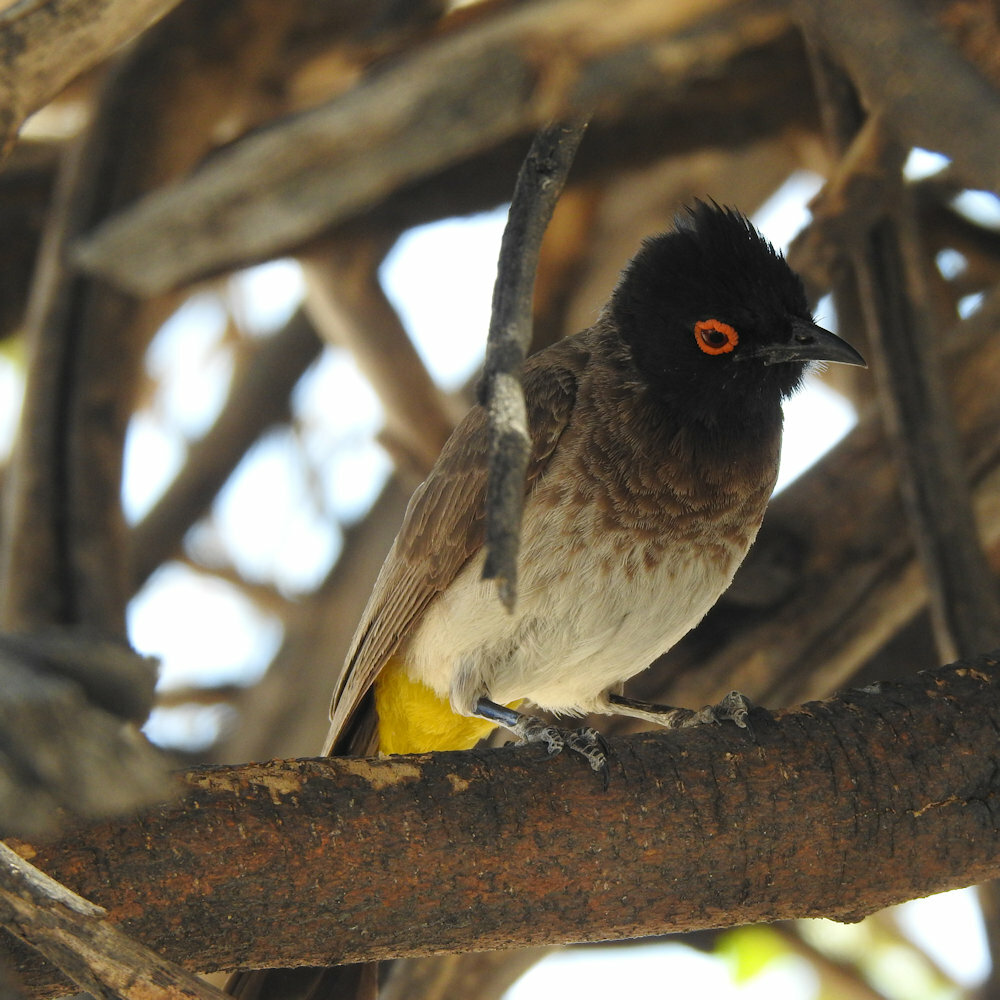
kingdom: Animalia
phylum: Chordata
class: Aves
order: Passeriformes
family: Pycnonotidae
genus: Pycnonotus
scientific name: Pycnonotus nigricans
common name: African red-eyed bulbul
